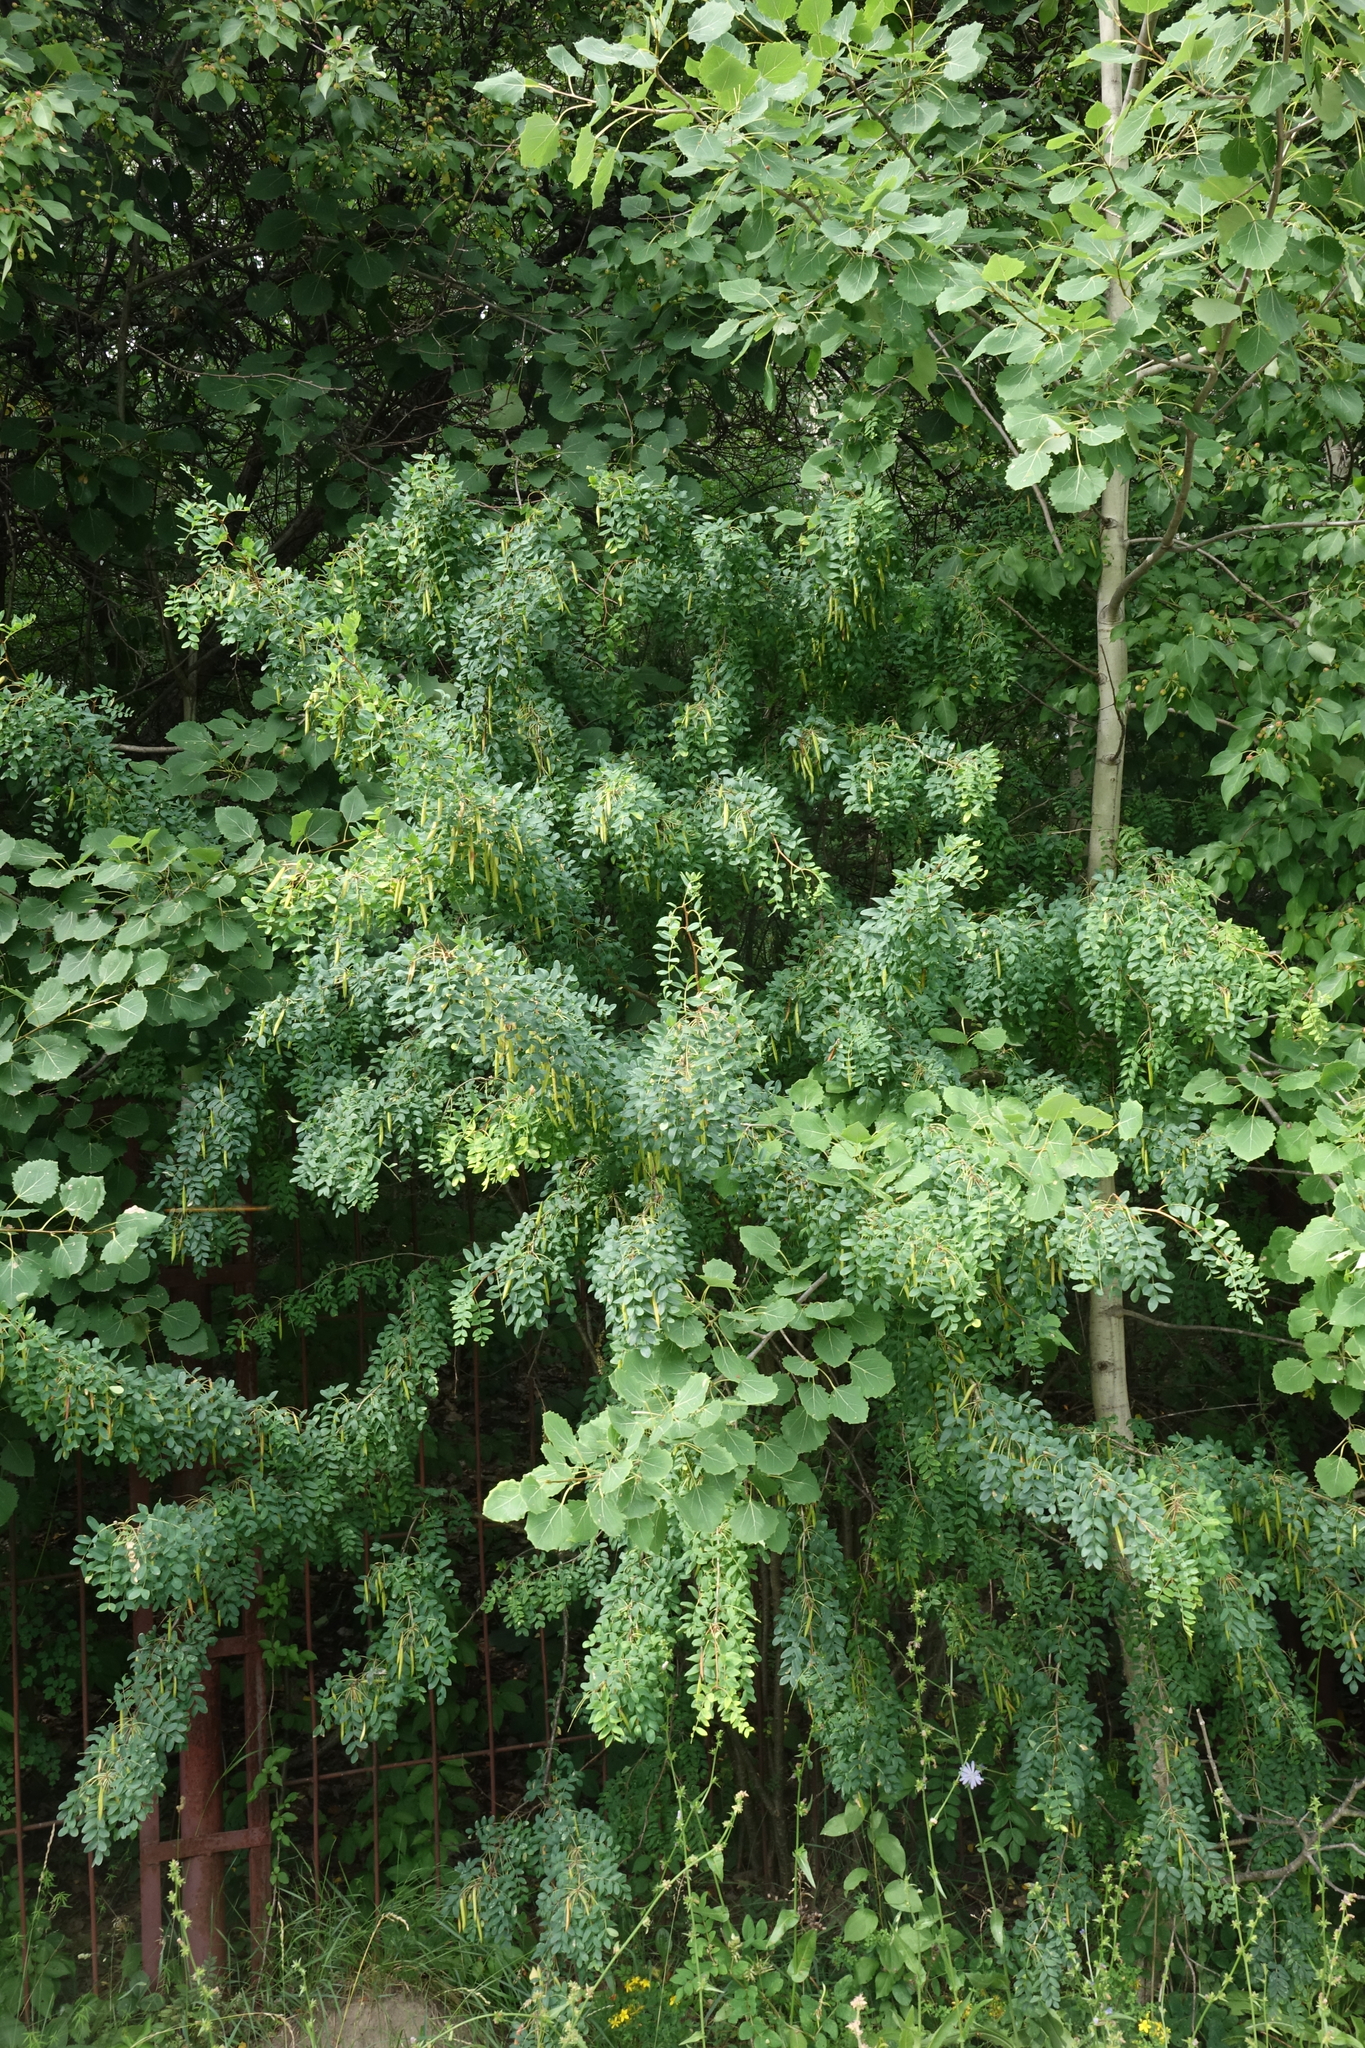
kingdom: Plantae
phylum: Tracheophyta
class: Magnoliopsida
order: Fabales
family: Fabaceae
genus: Caragana
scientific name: Caragana arborescens
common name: Siberian peashrub
